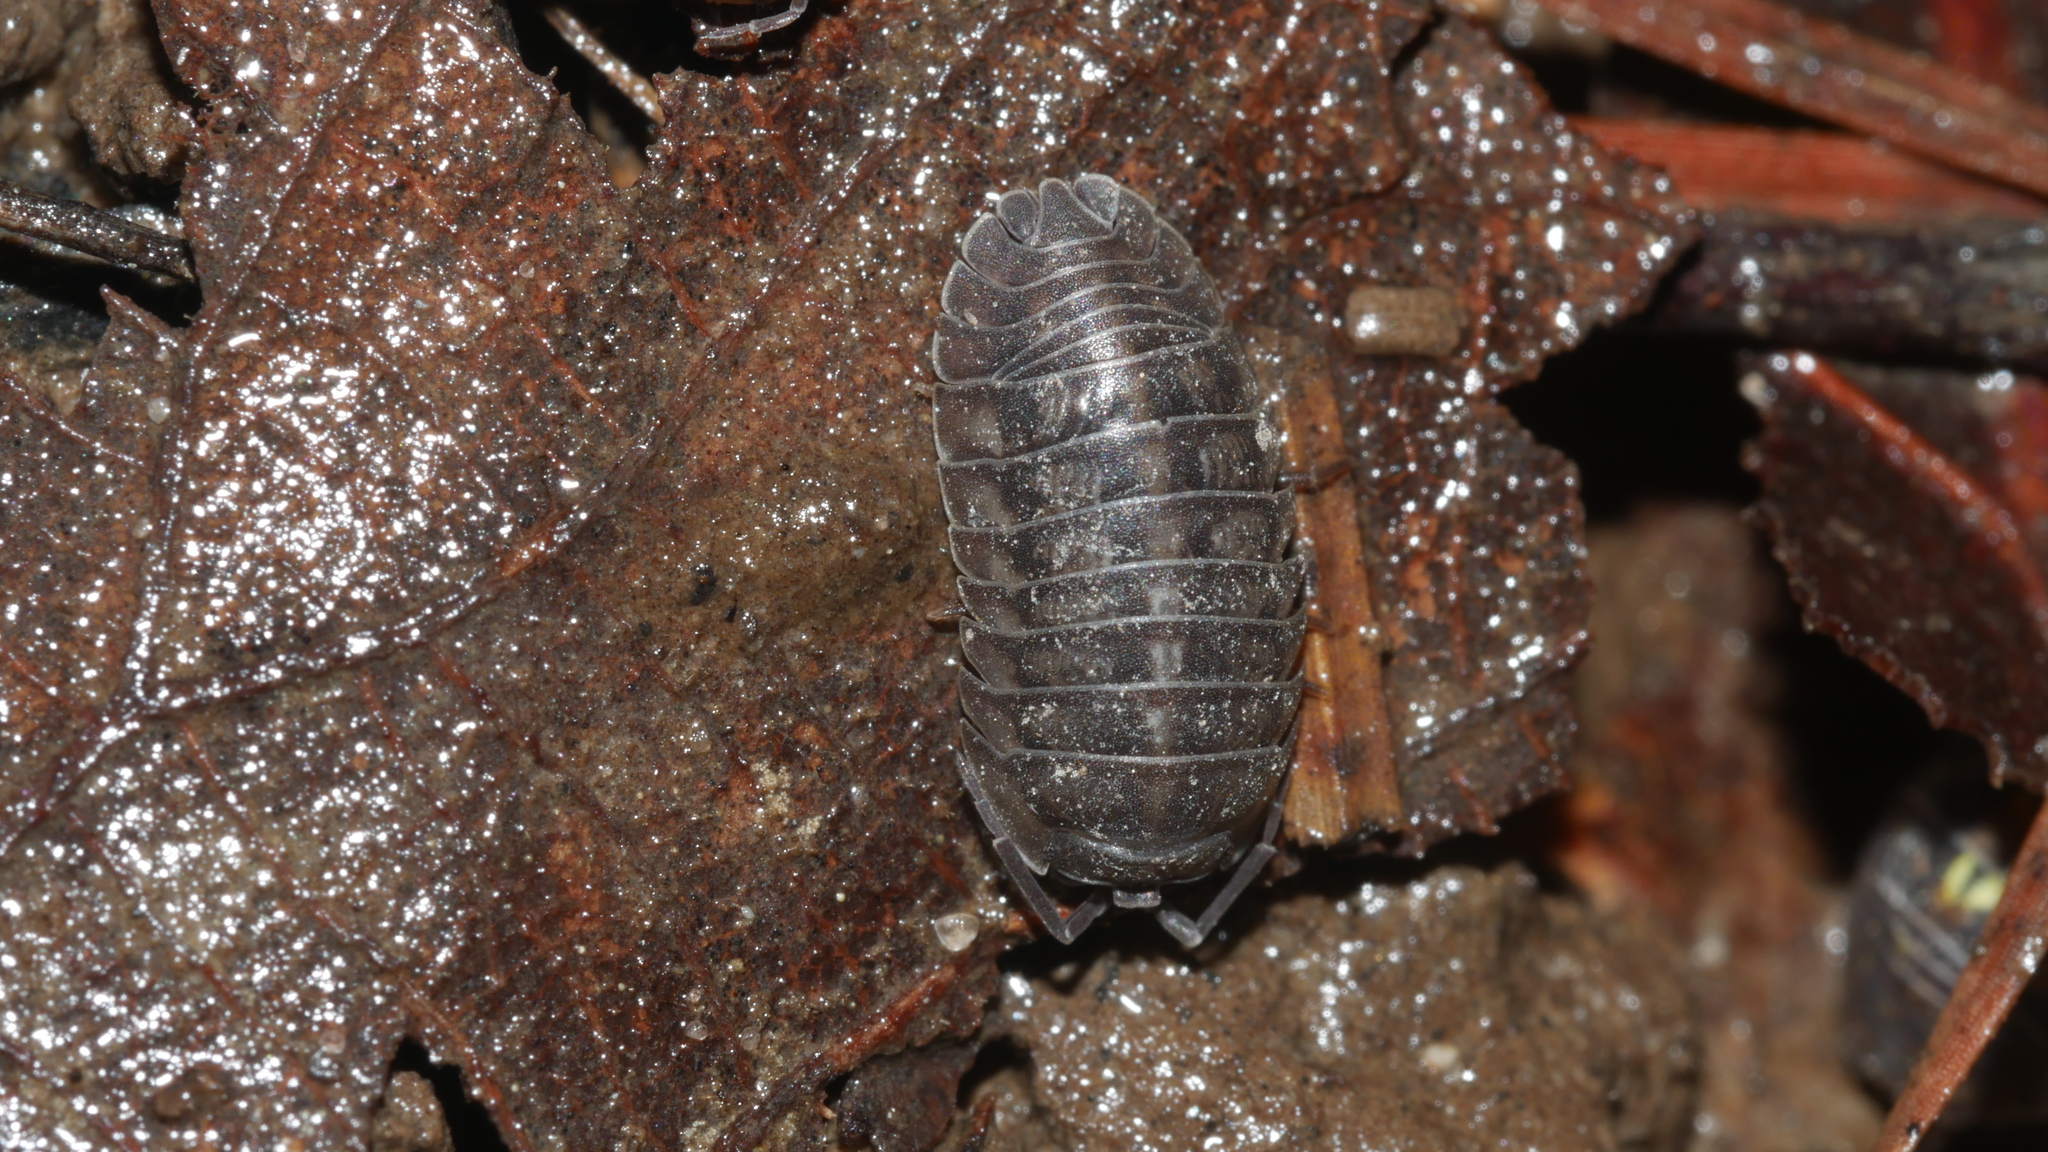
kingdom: Animalia
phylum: Arthropoda
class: Malacostraca
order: Isopoda
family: Armadillidiidae
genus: Armadillidium
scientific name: Armadillidium nasatum
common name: Isopod
